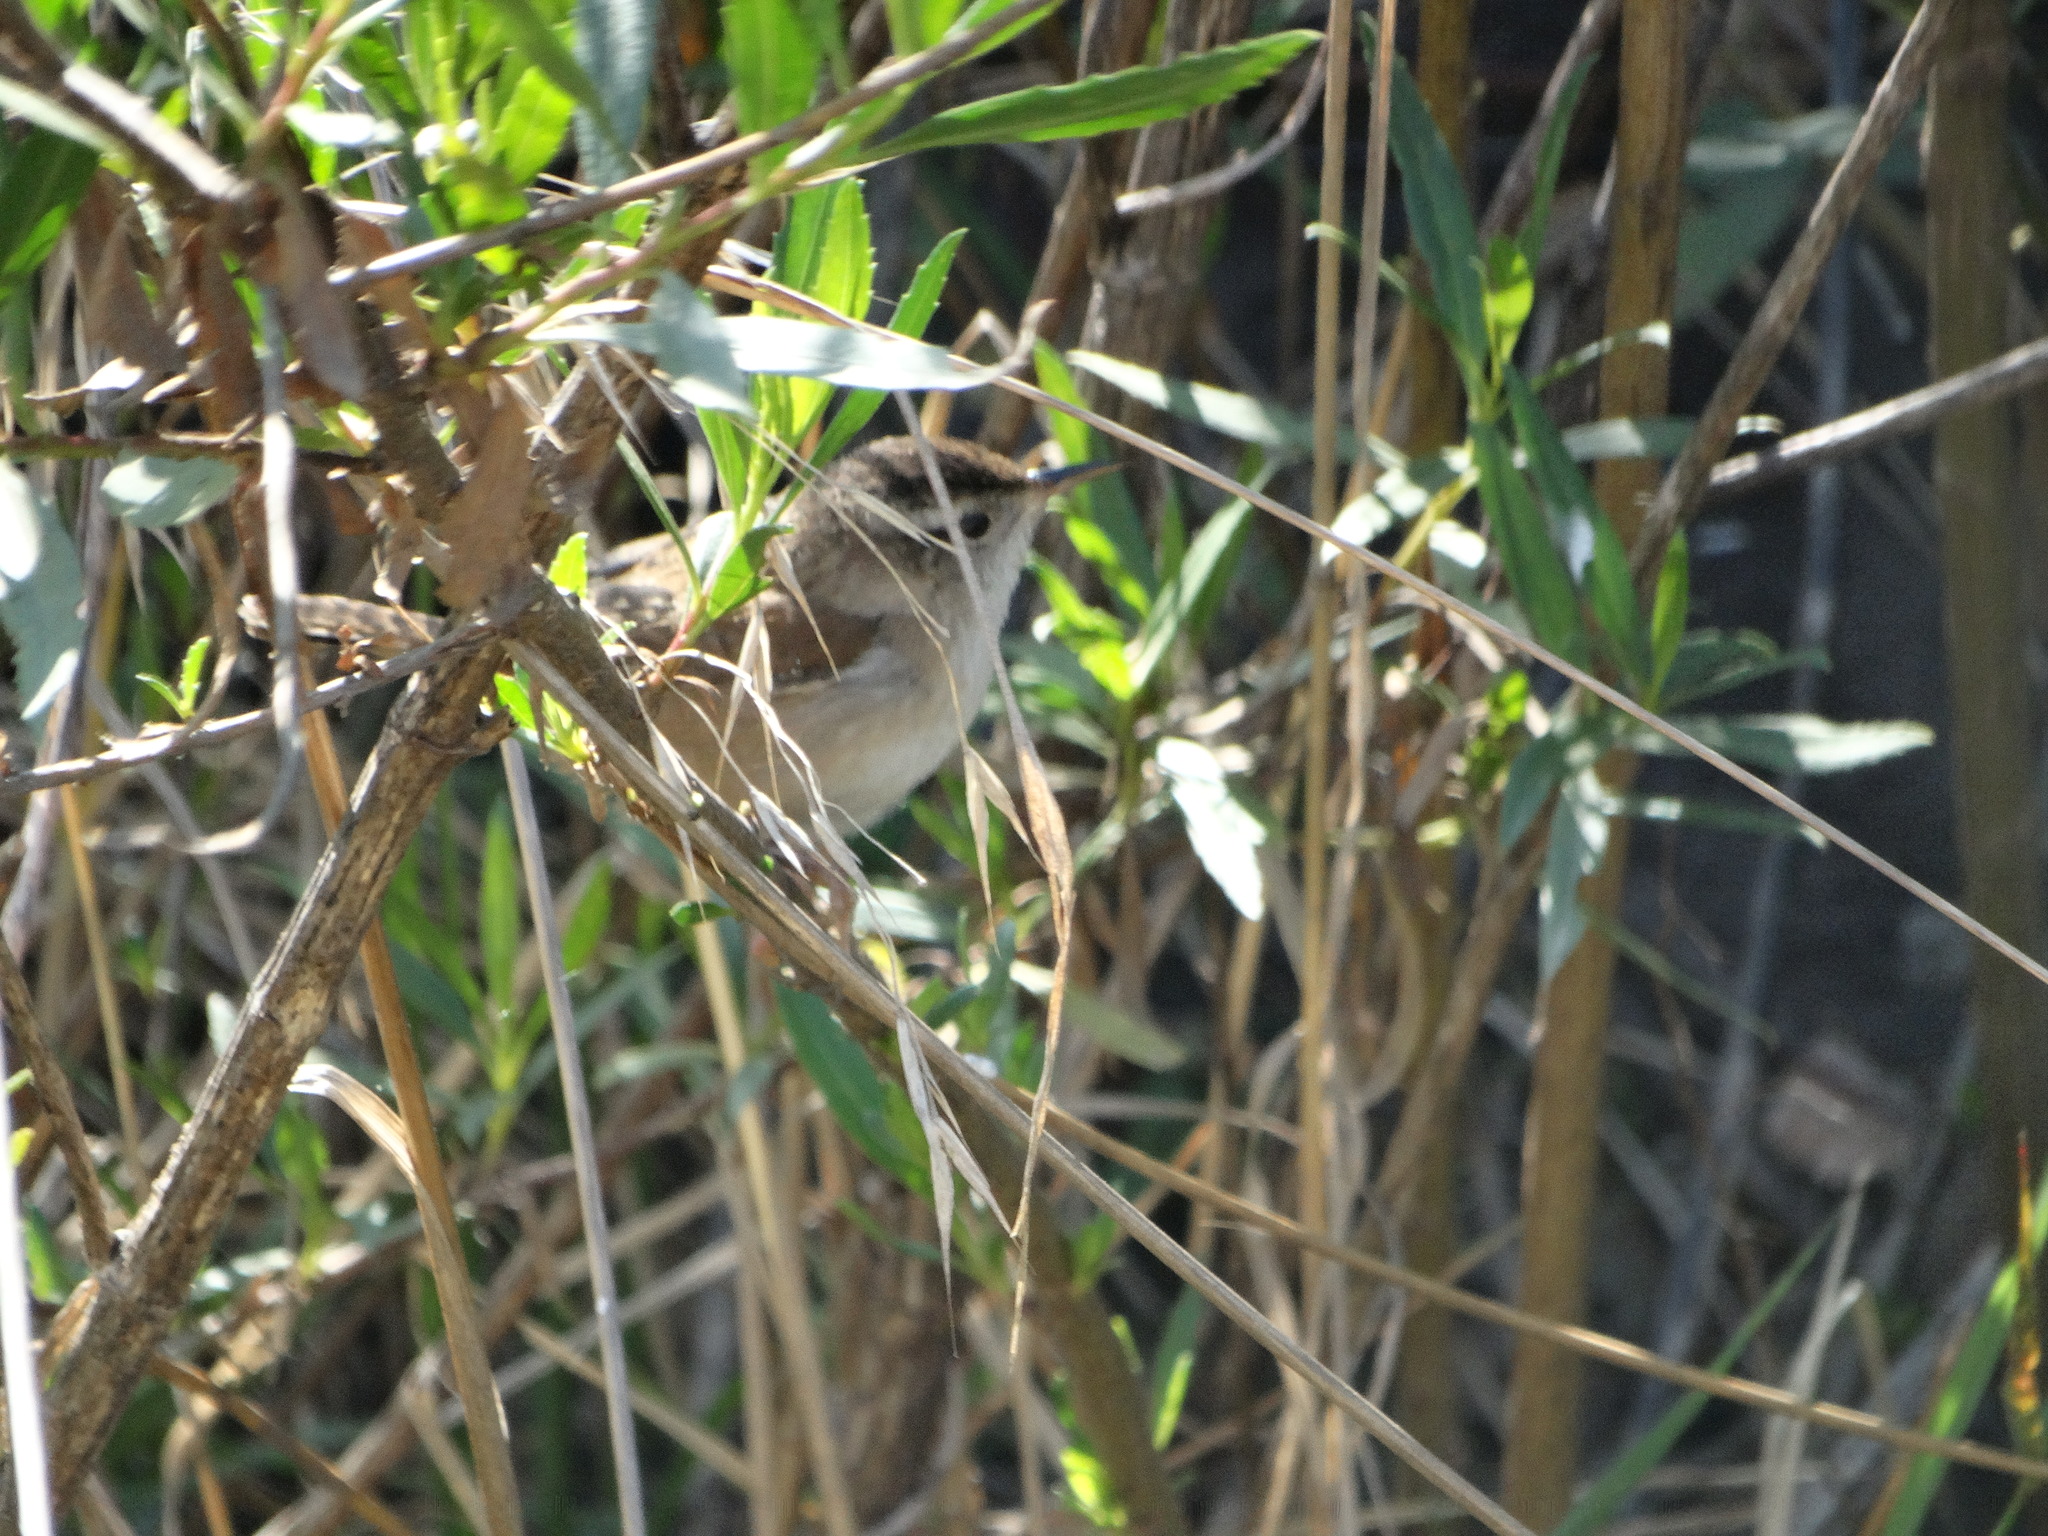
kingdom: Animalia
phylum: Chordata
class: Aves
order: Passeriformes
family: Troglodytidae
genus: Cistothorus
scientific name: Cistothorus palustris
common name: Marsh wren
